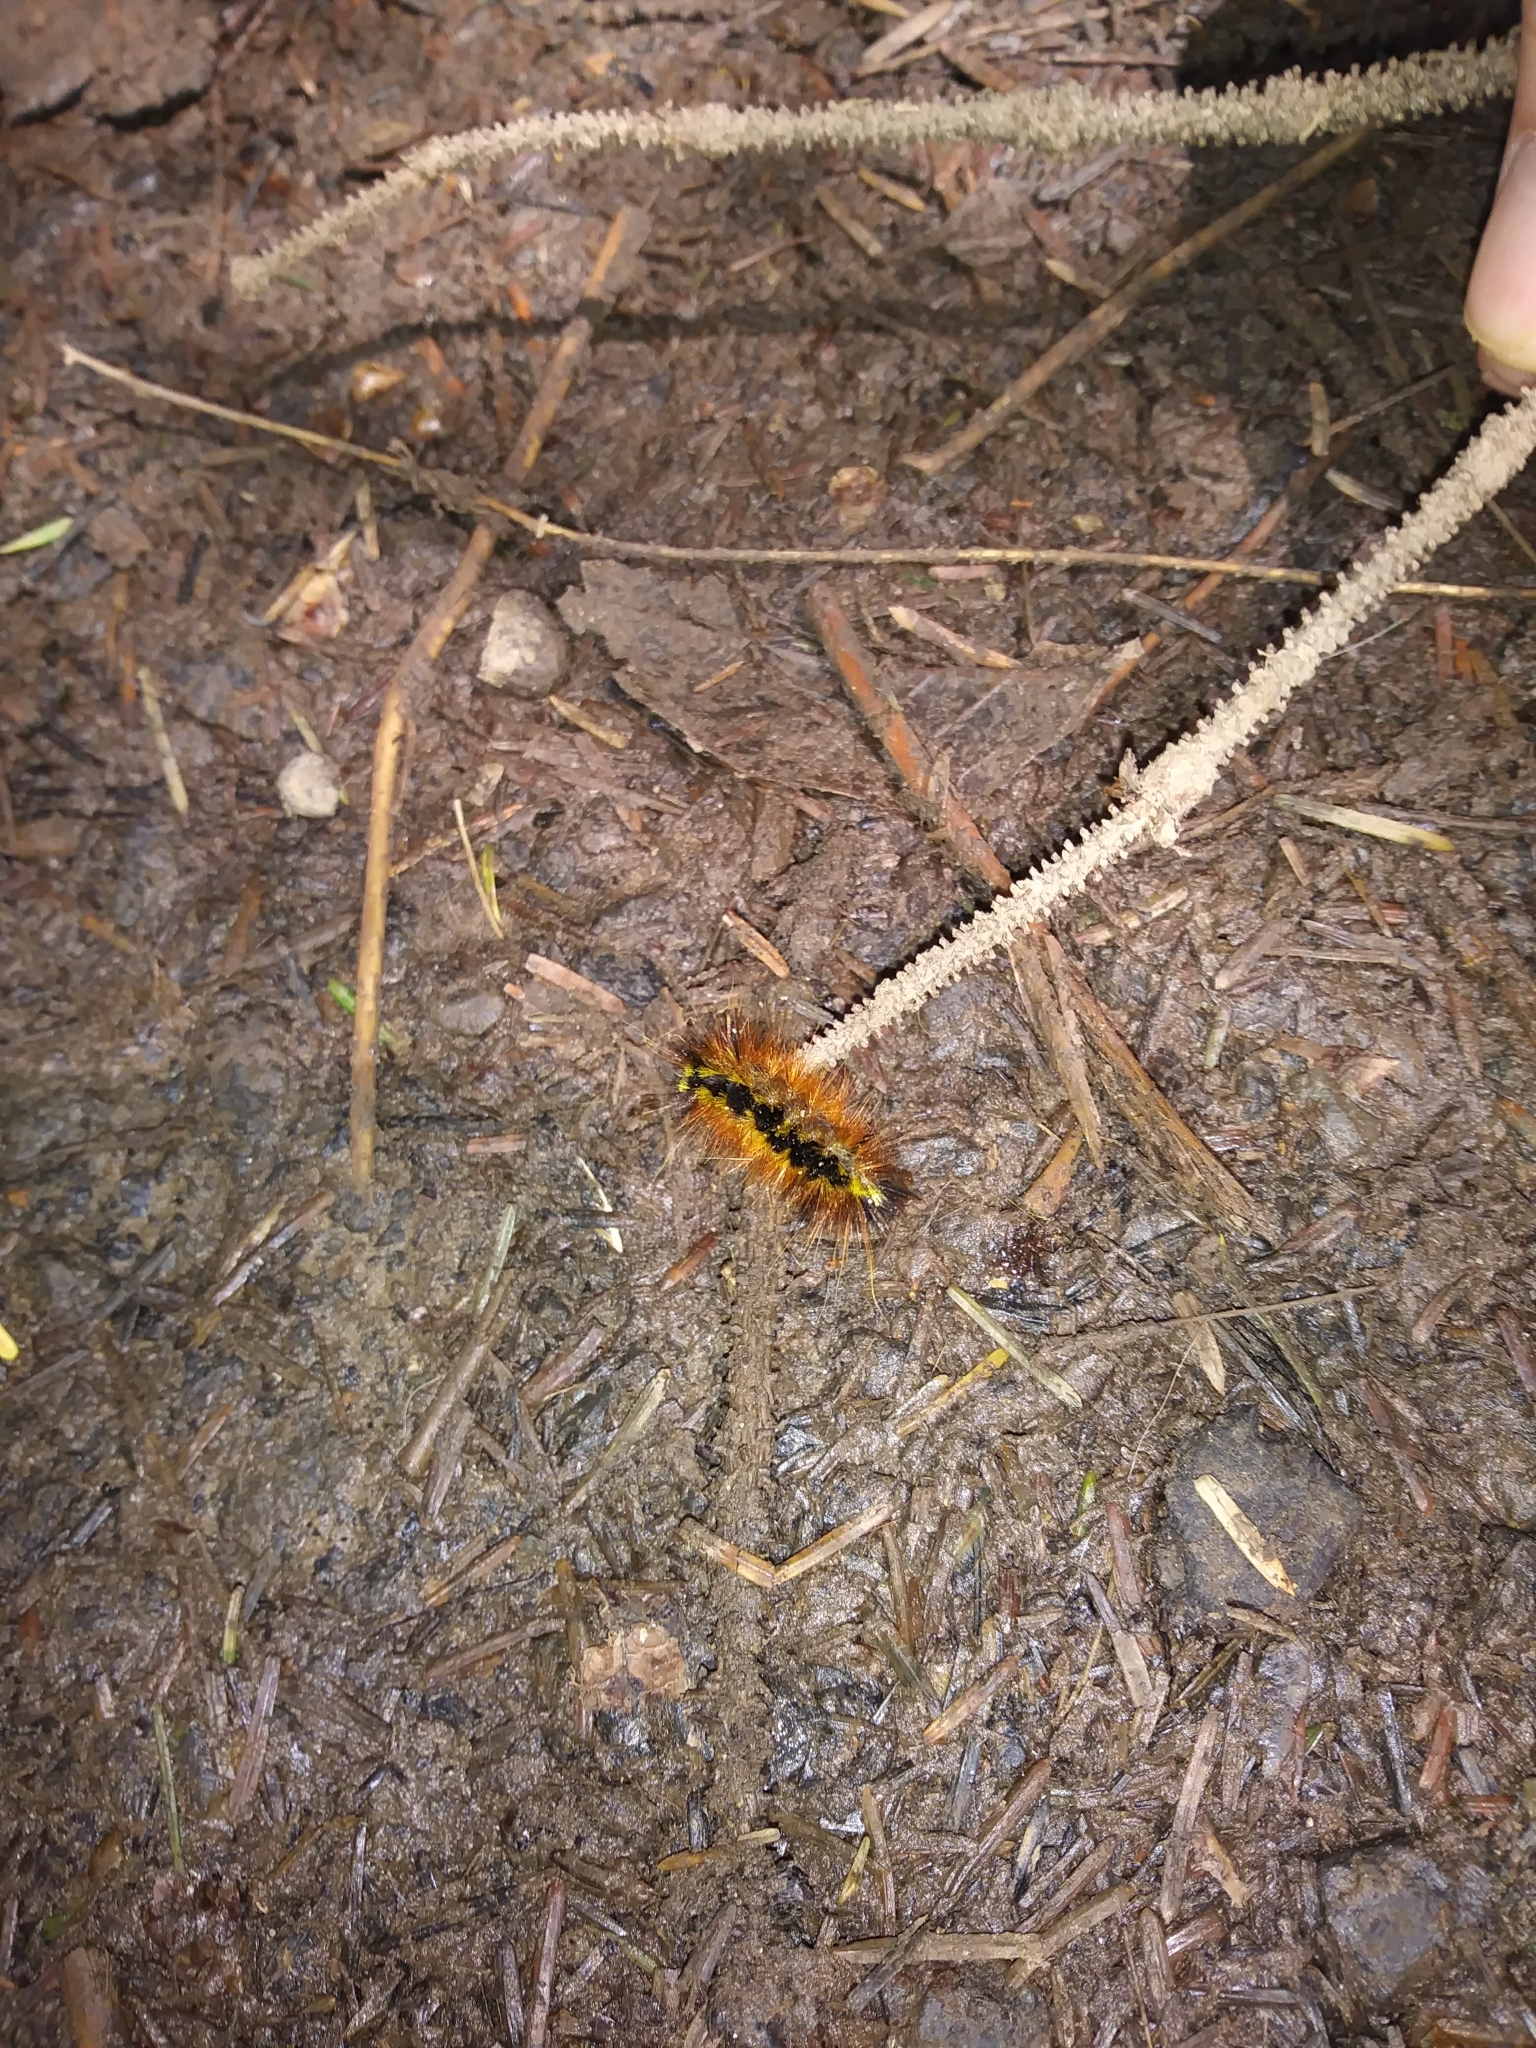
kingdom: Animalia
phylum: Arthropoda
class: Insecta
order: Lepidoptera
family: Erebidae
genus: Lophocampa
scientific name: Lophocampa argentata
